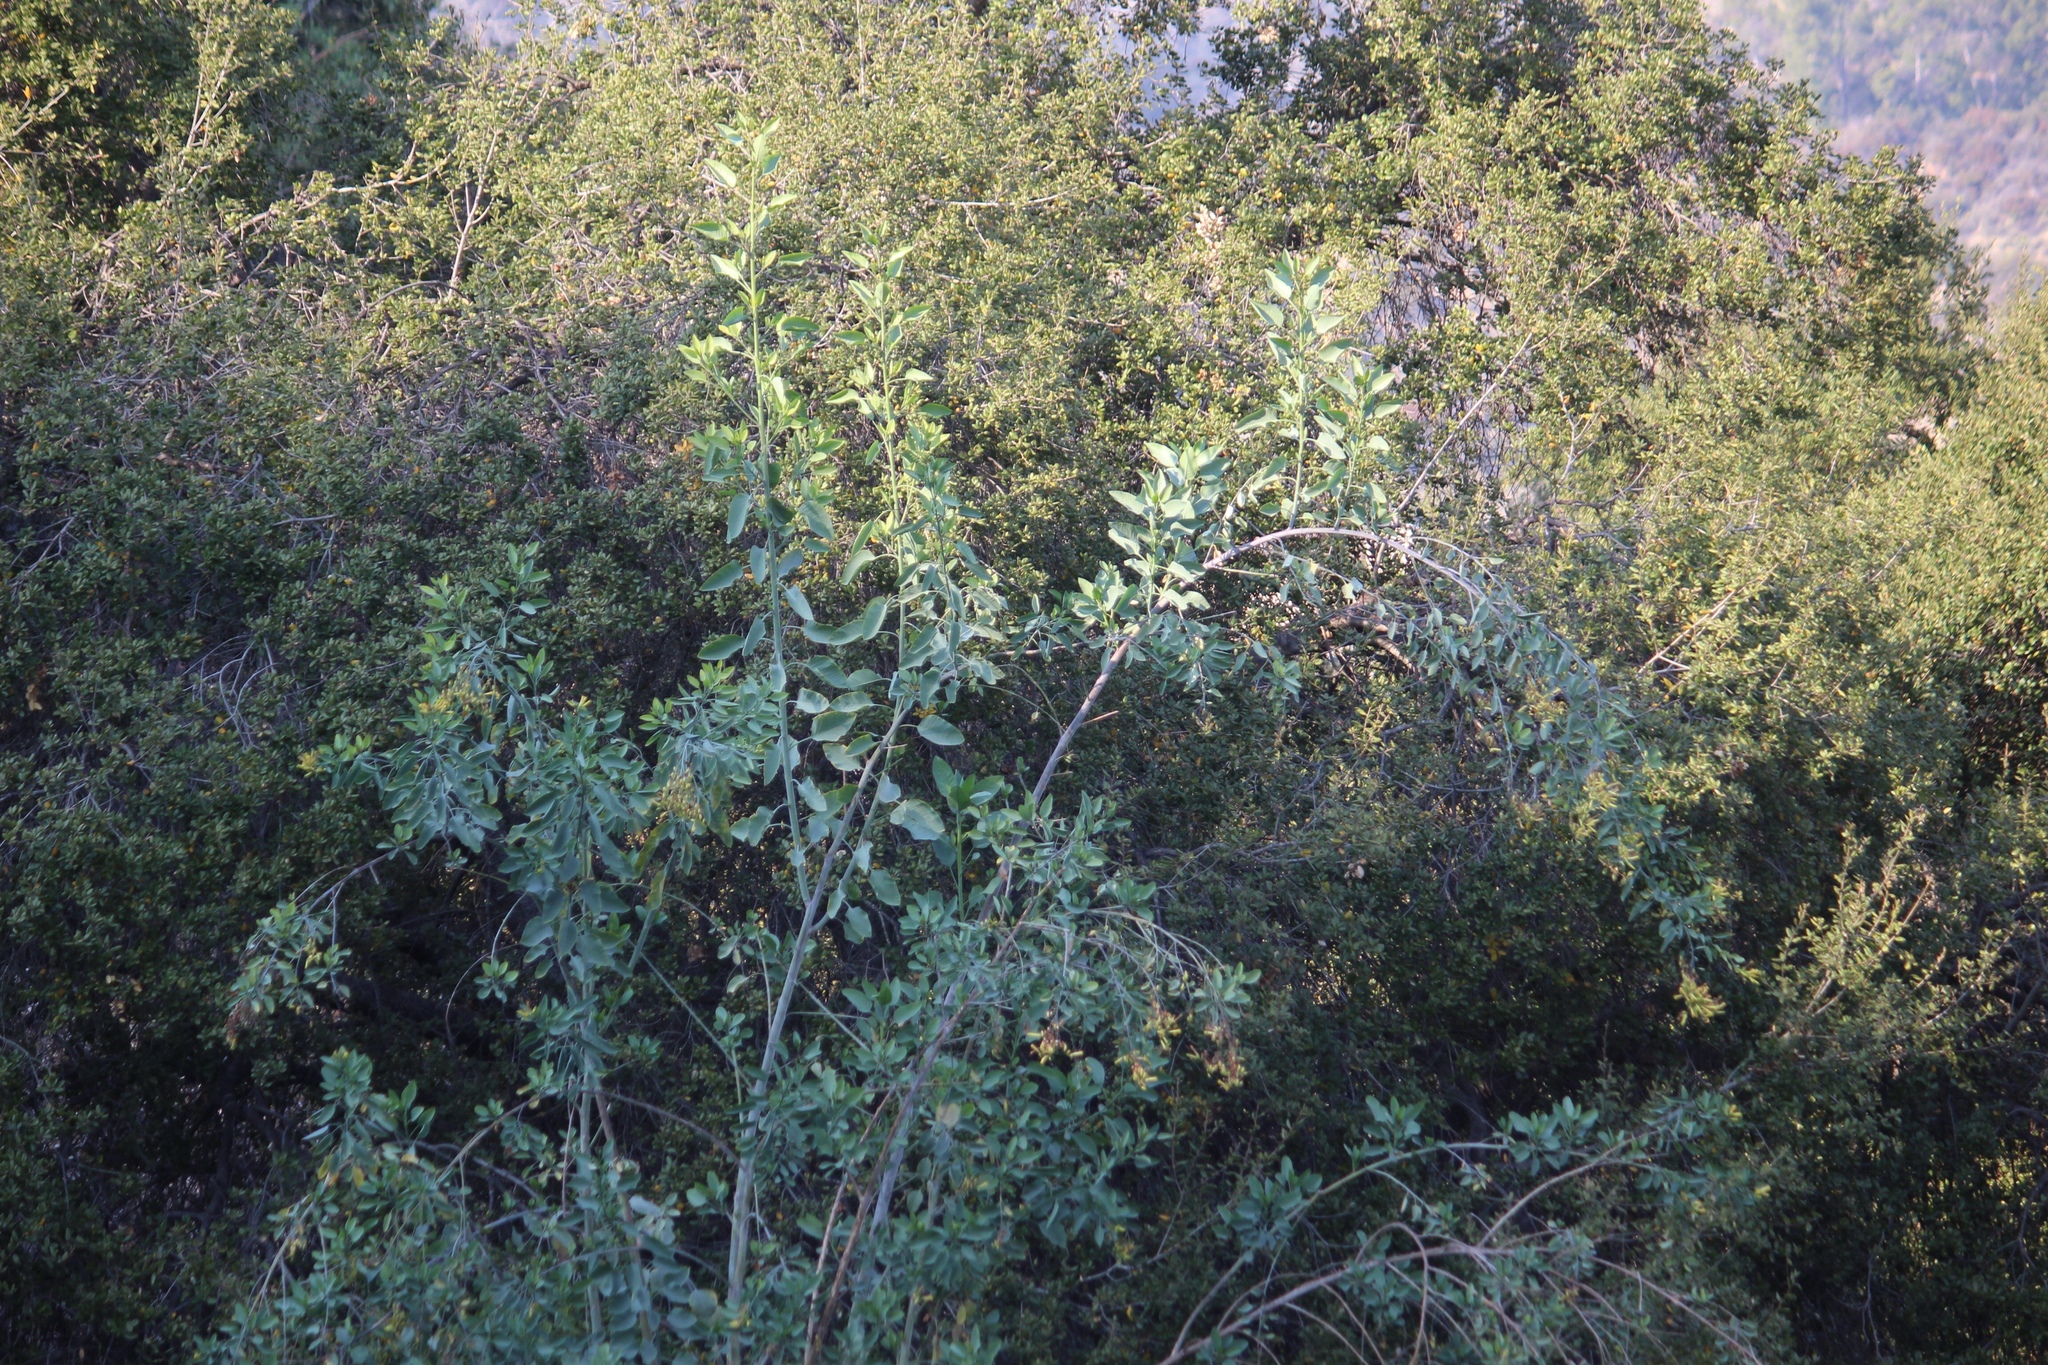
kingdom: Plantae
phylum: Tracheophyta
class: Magnoliopsida
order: Solanales
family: Solanaceae
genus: Nicotiana
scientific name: Nicotiana glauca
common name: Tree tobacco
